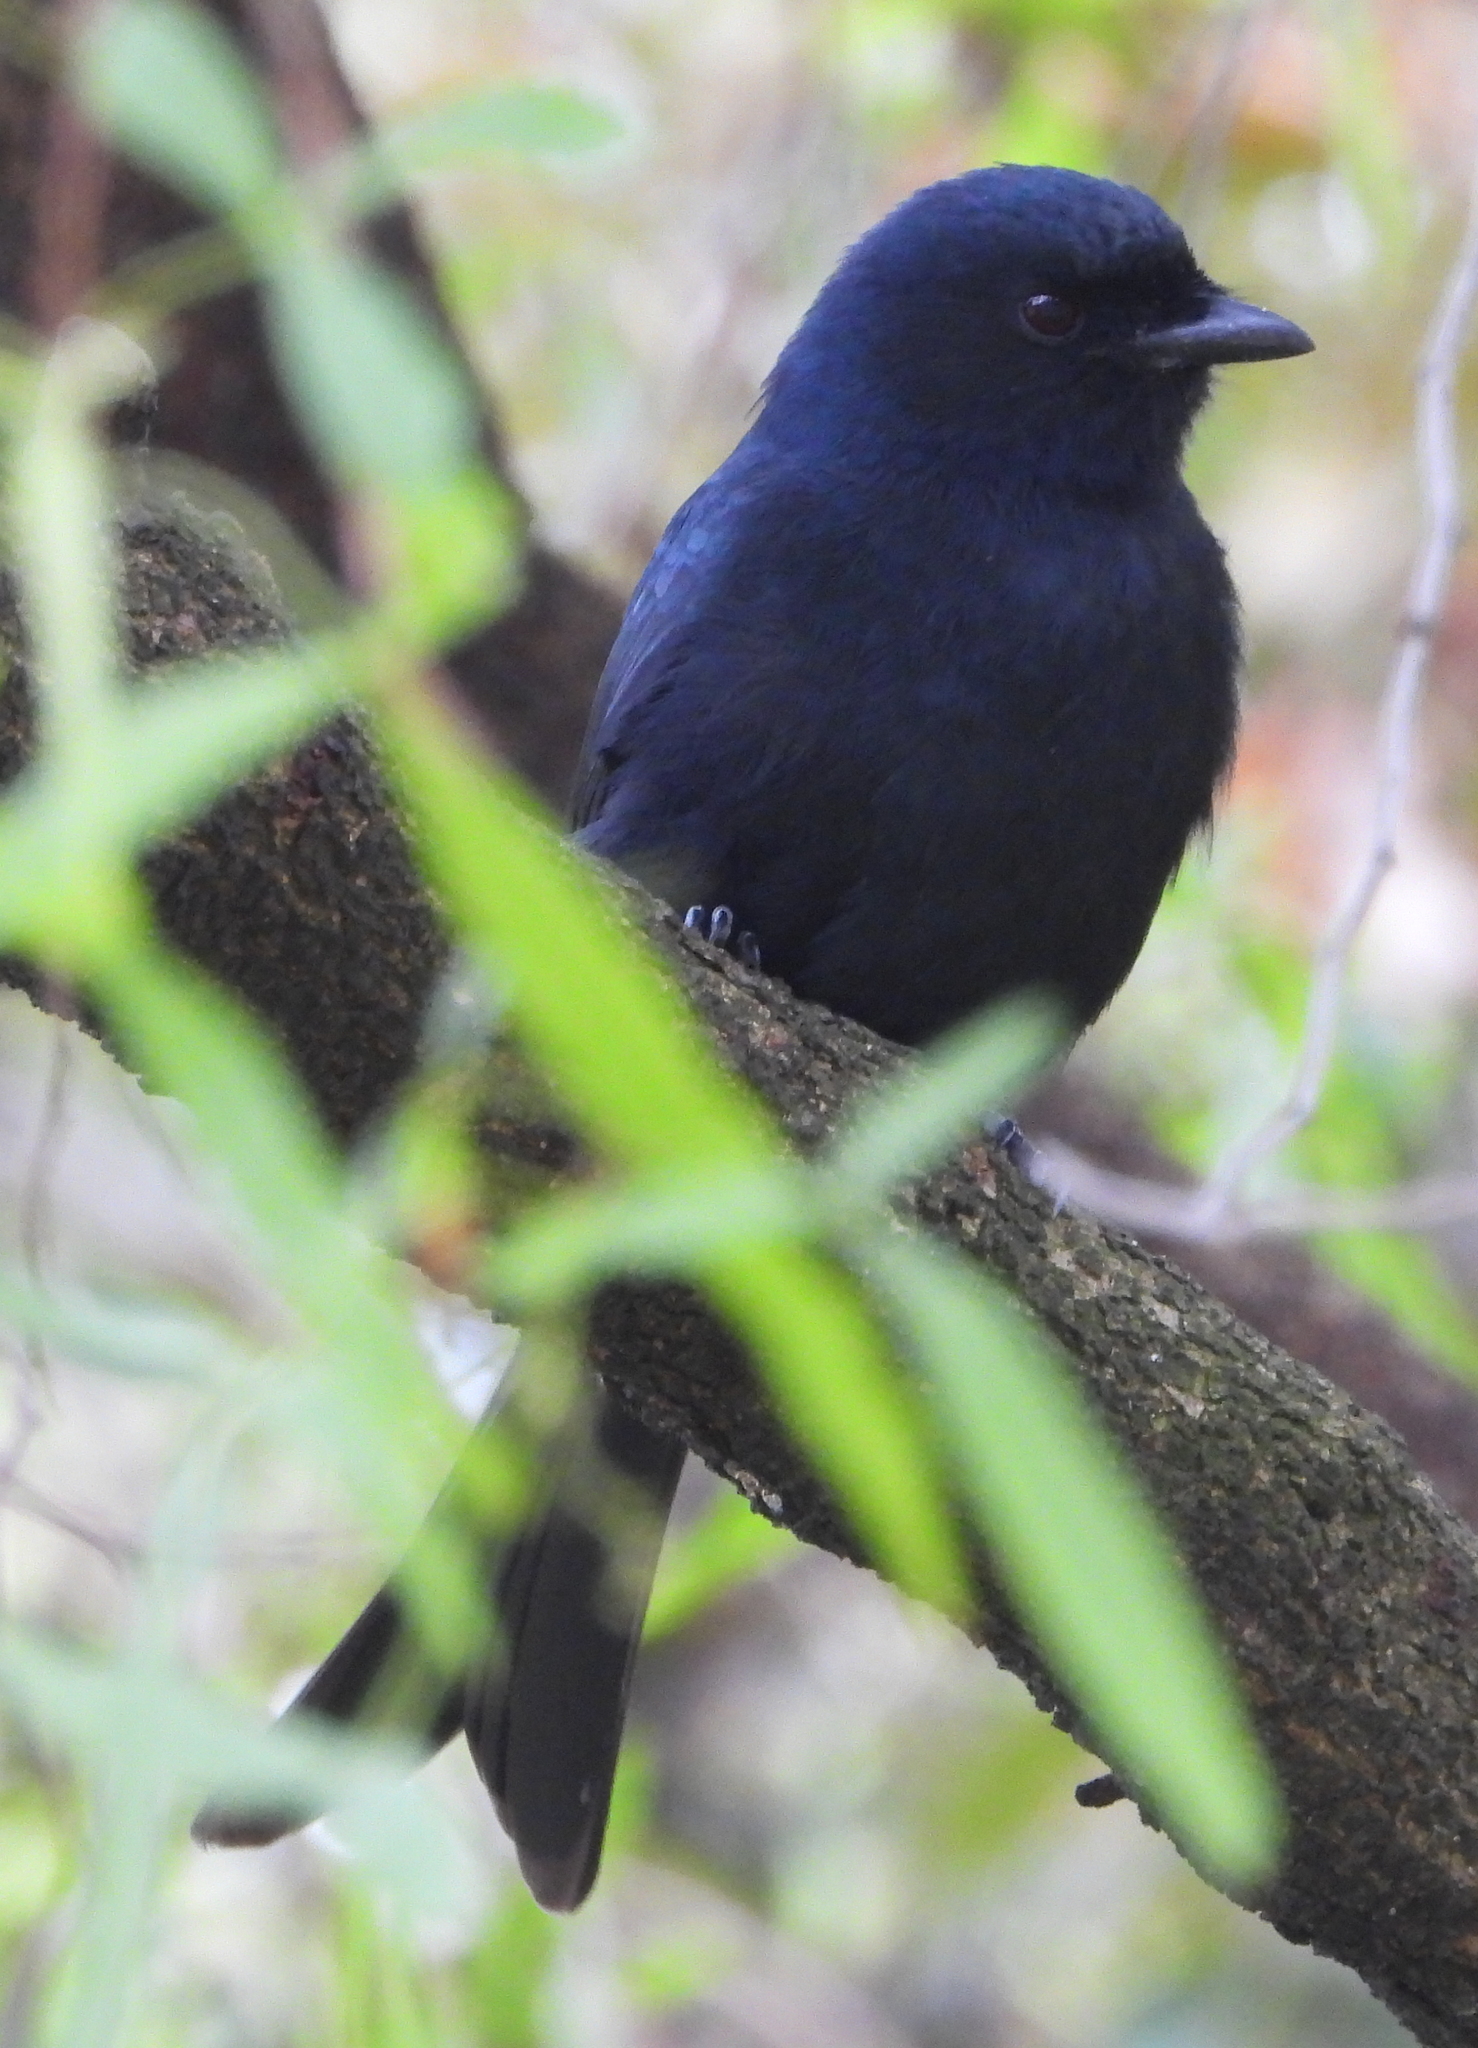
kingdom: Animalia
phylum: Chordata
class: Aves
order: Passeriformes
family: Dicruridae
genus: Dicrurus
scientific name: Dicrurus adsimilis
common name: Fork-tailed drongo
